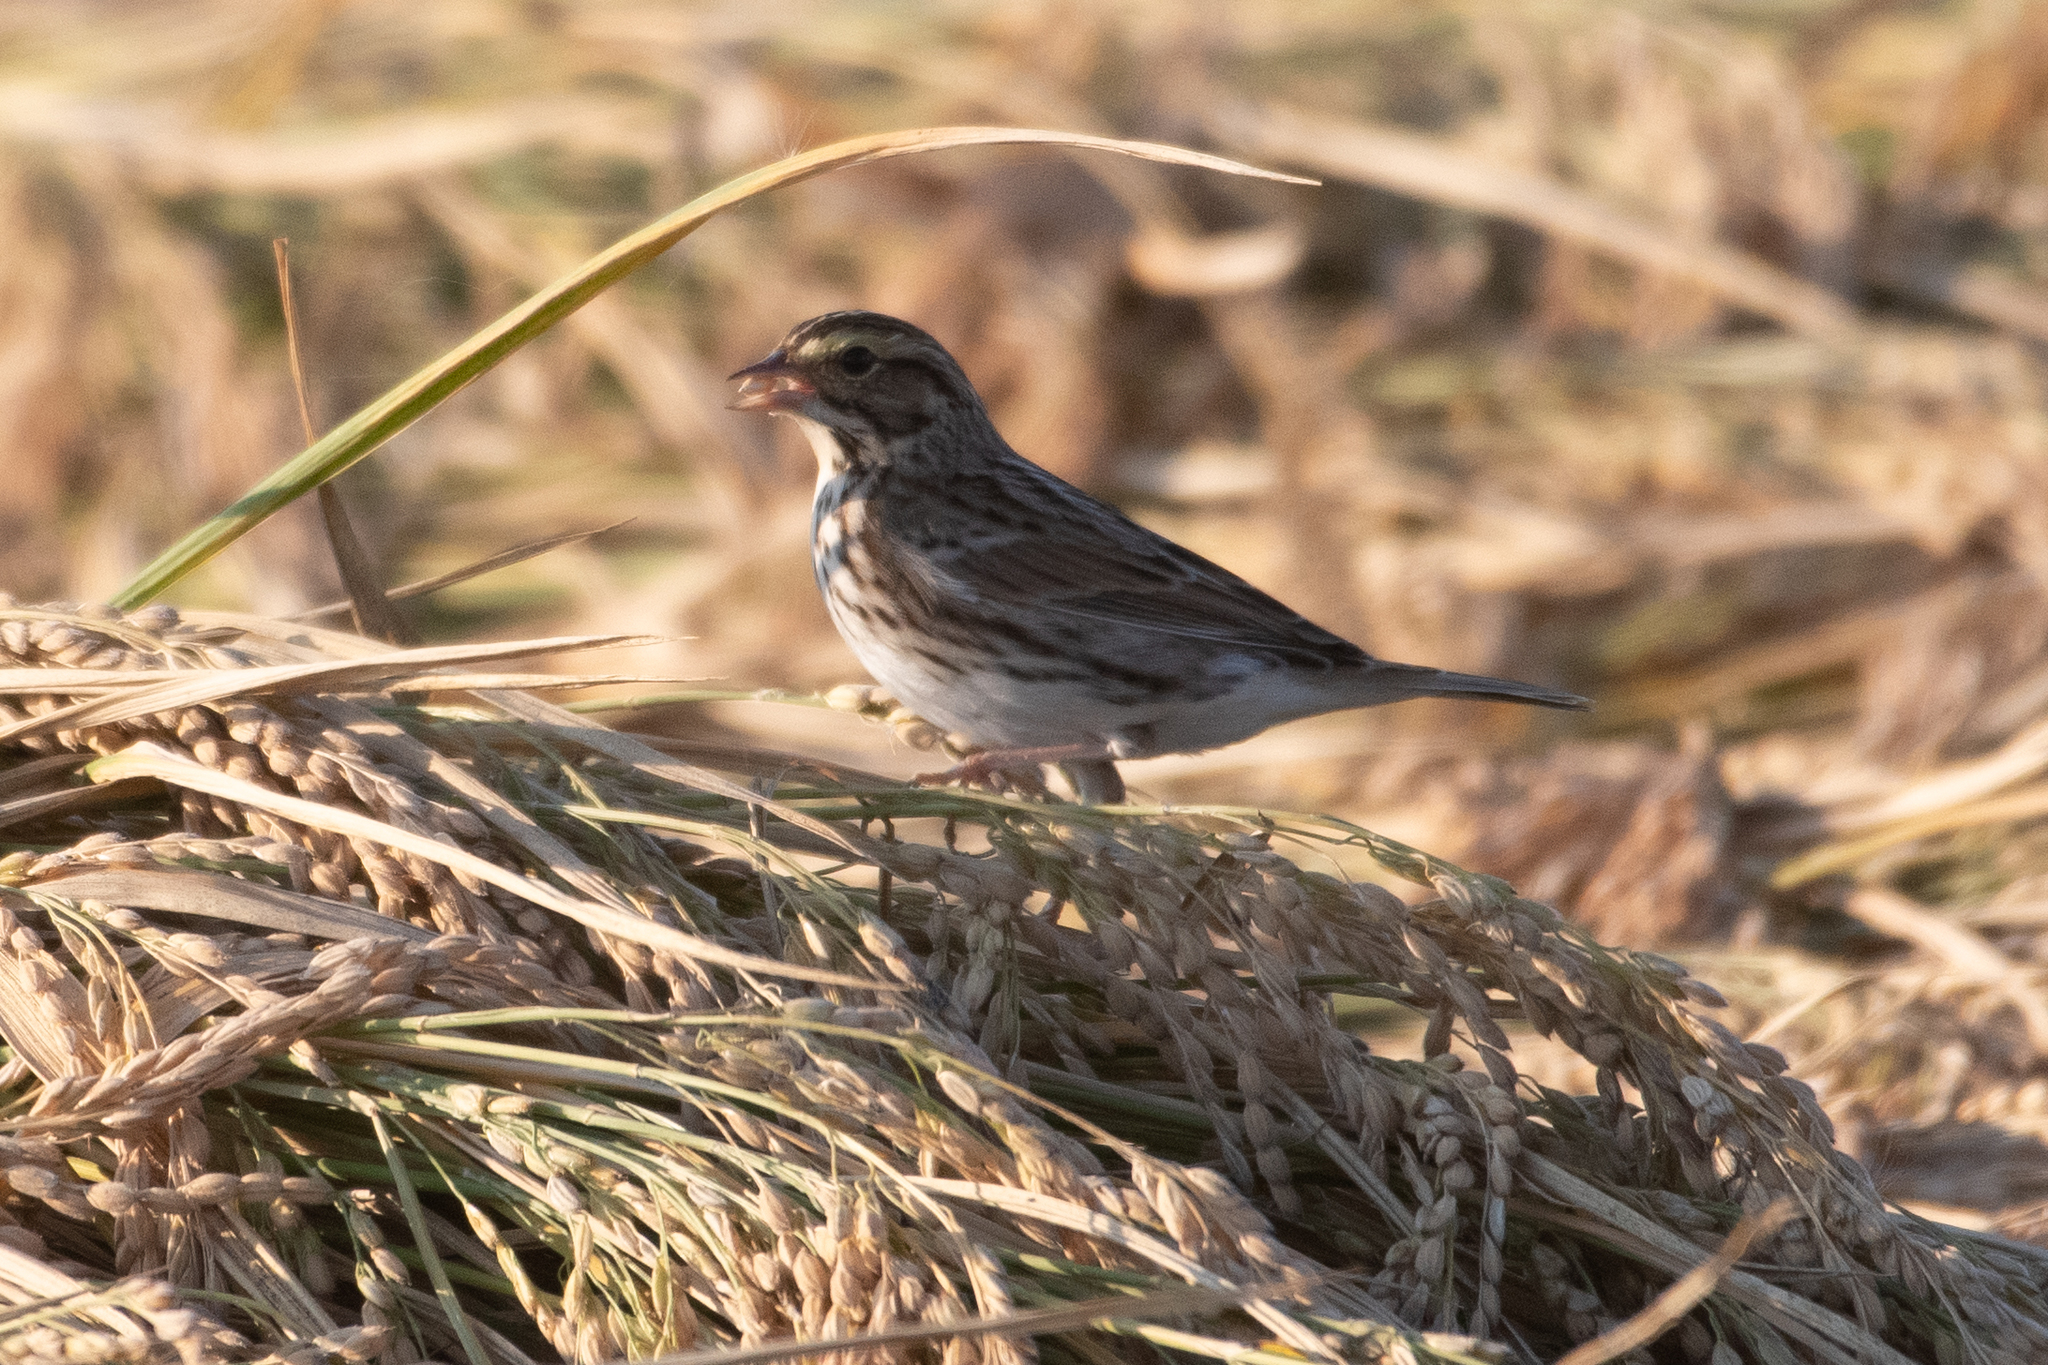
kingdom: Animalia
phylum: Chordata
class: Aves
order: Passeriformes
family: Passerellidae
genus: Passerculus
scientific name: Passerculus sandwichensis
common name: Savannah sparrow
